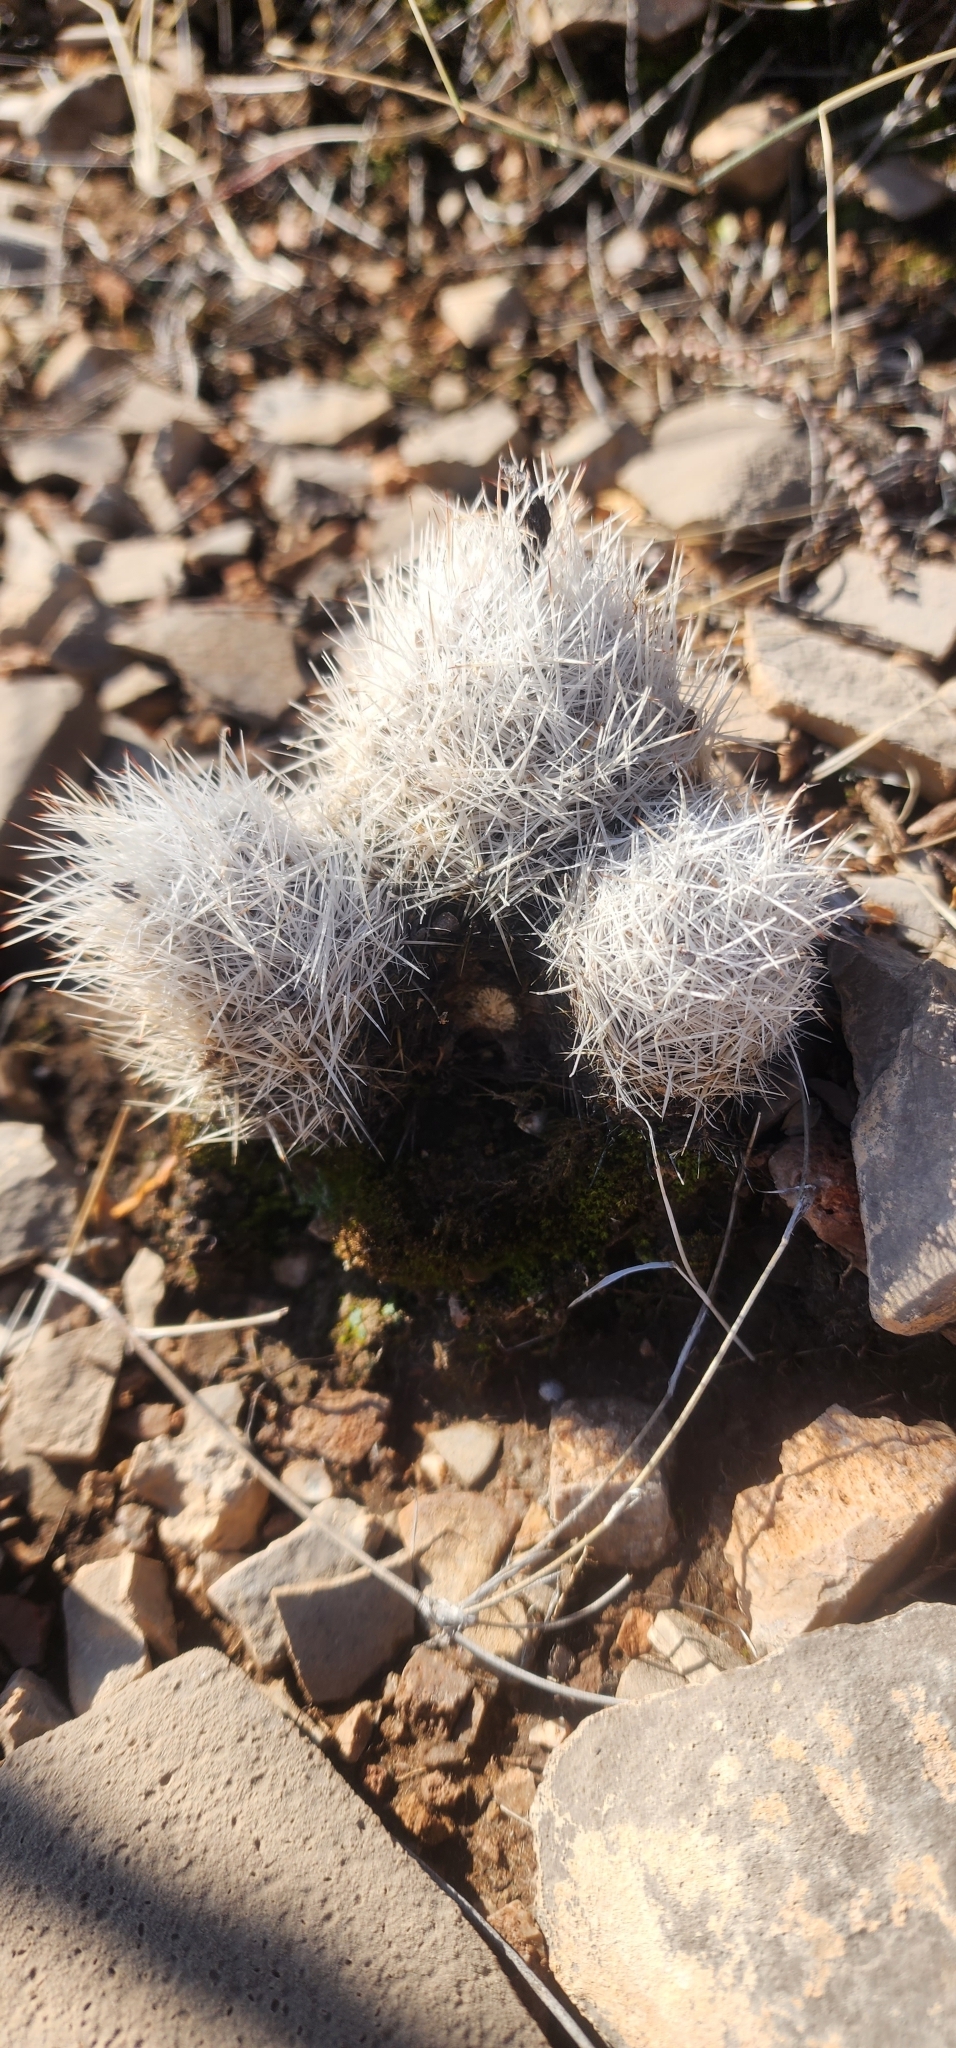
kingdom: Plantae
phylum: Tracheophyta
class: Magnoliopsida
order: Caryophyllales
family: Cactaceae
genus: Pelecyphora
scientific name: Pelecyphora sneedii
